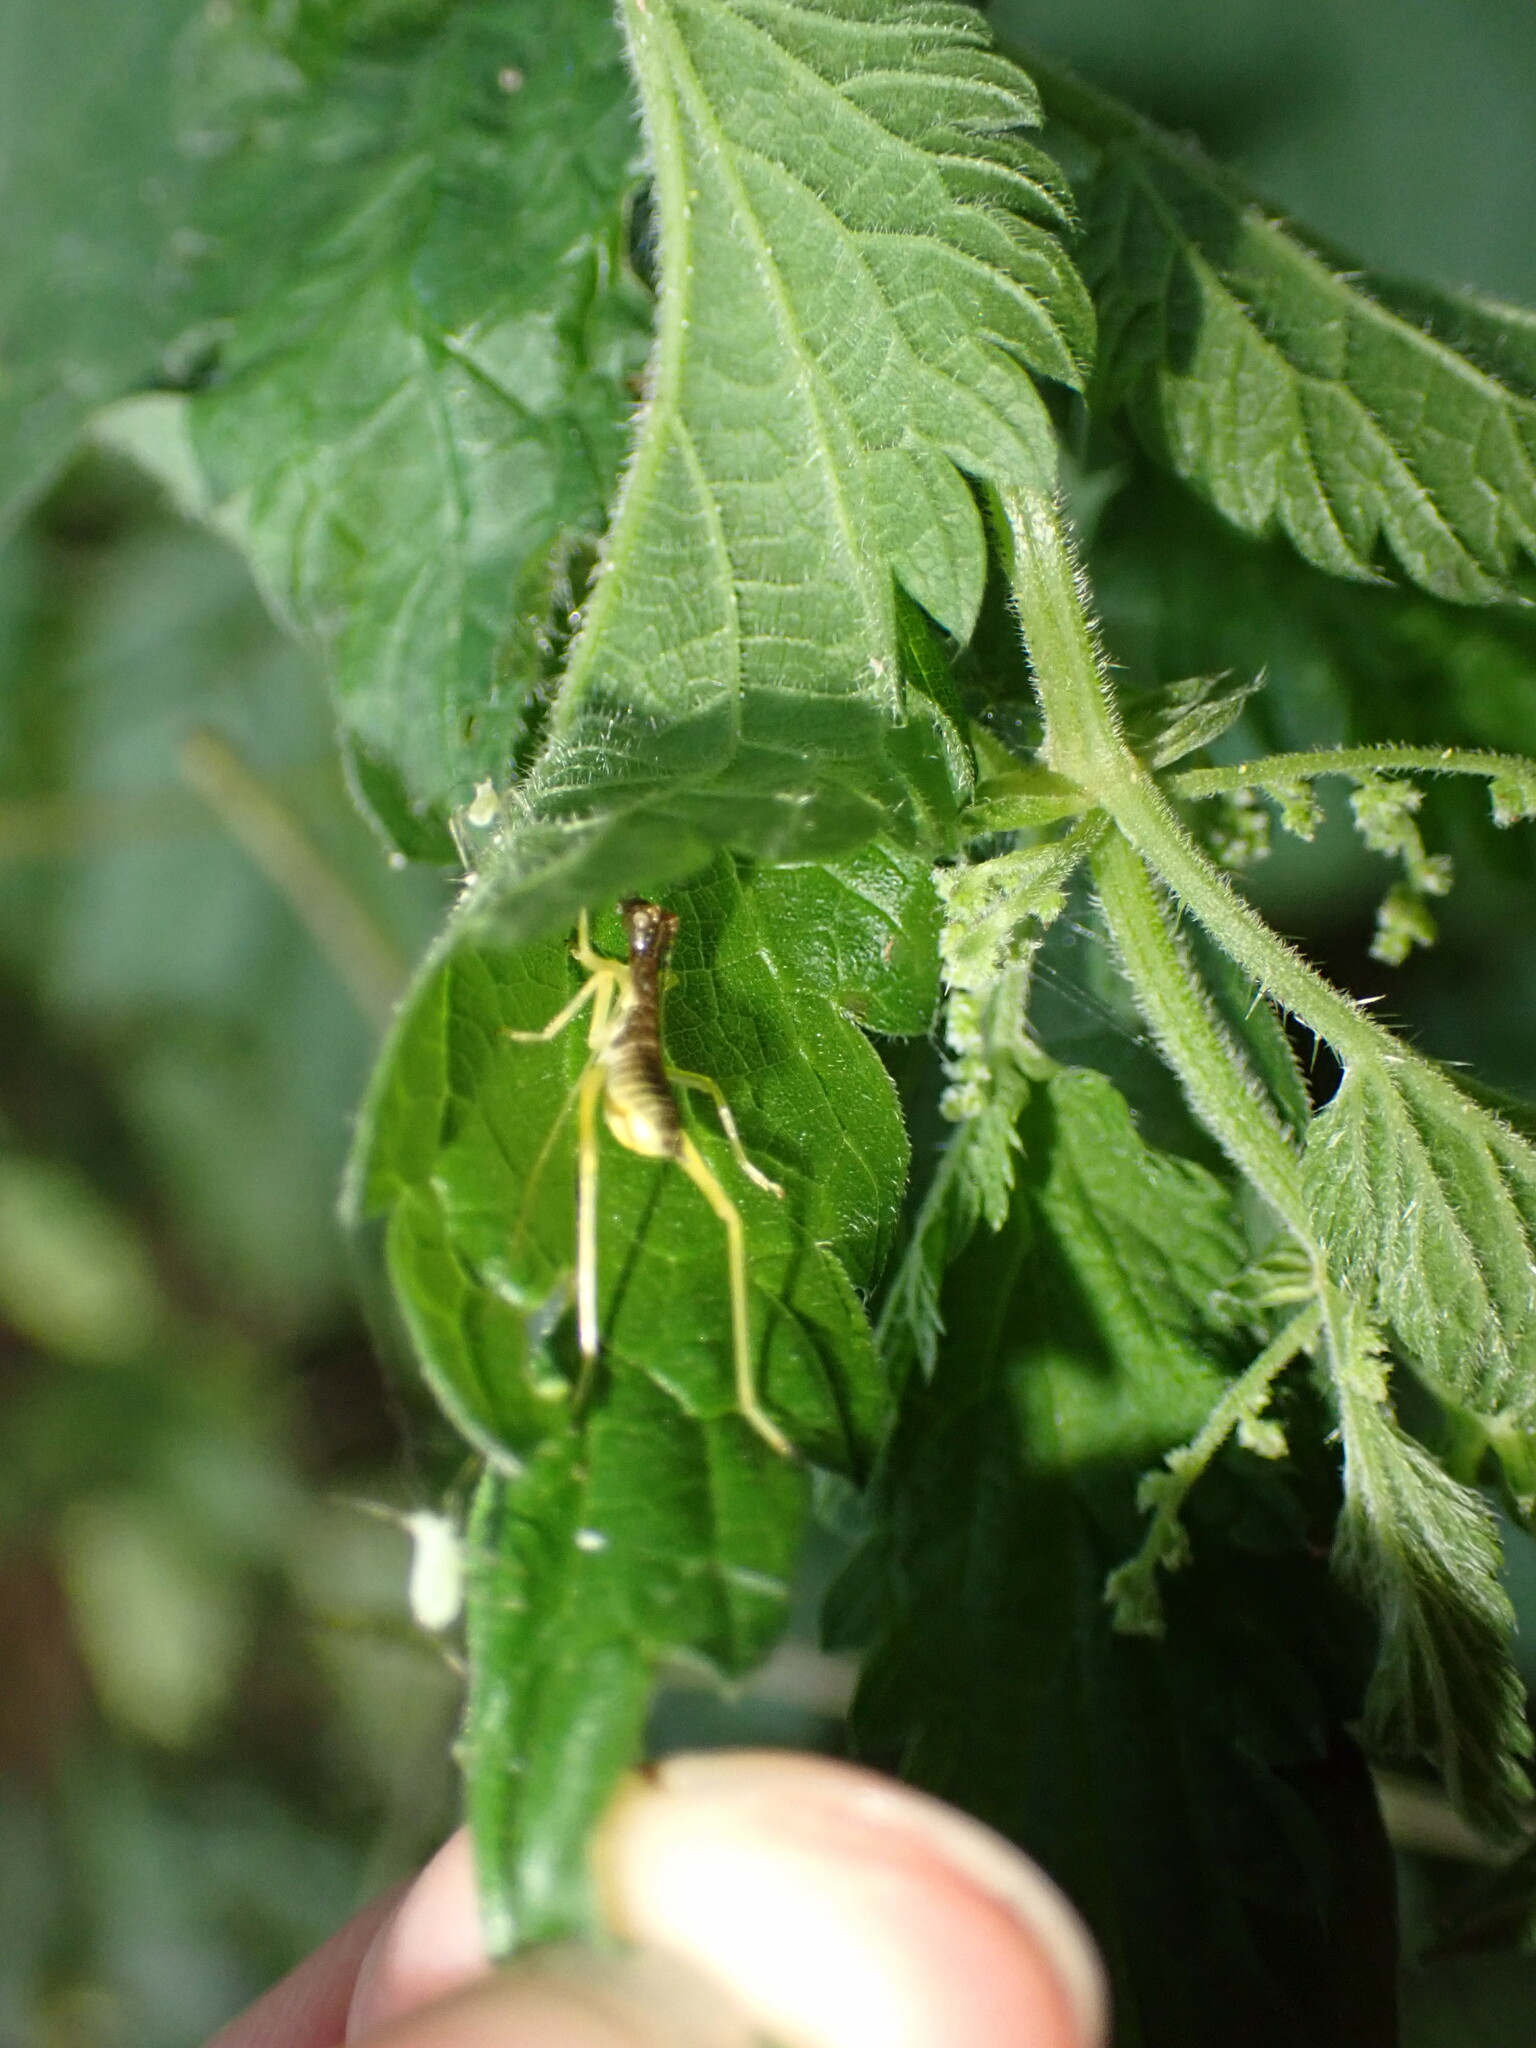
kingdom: Animalia
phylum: Arthropoda
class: Insecta
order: Orthoptera
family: Gryllidae
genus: Neoxabea
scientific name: Neoxabea bipunctata
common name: Two-spotted tree cricket
